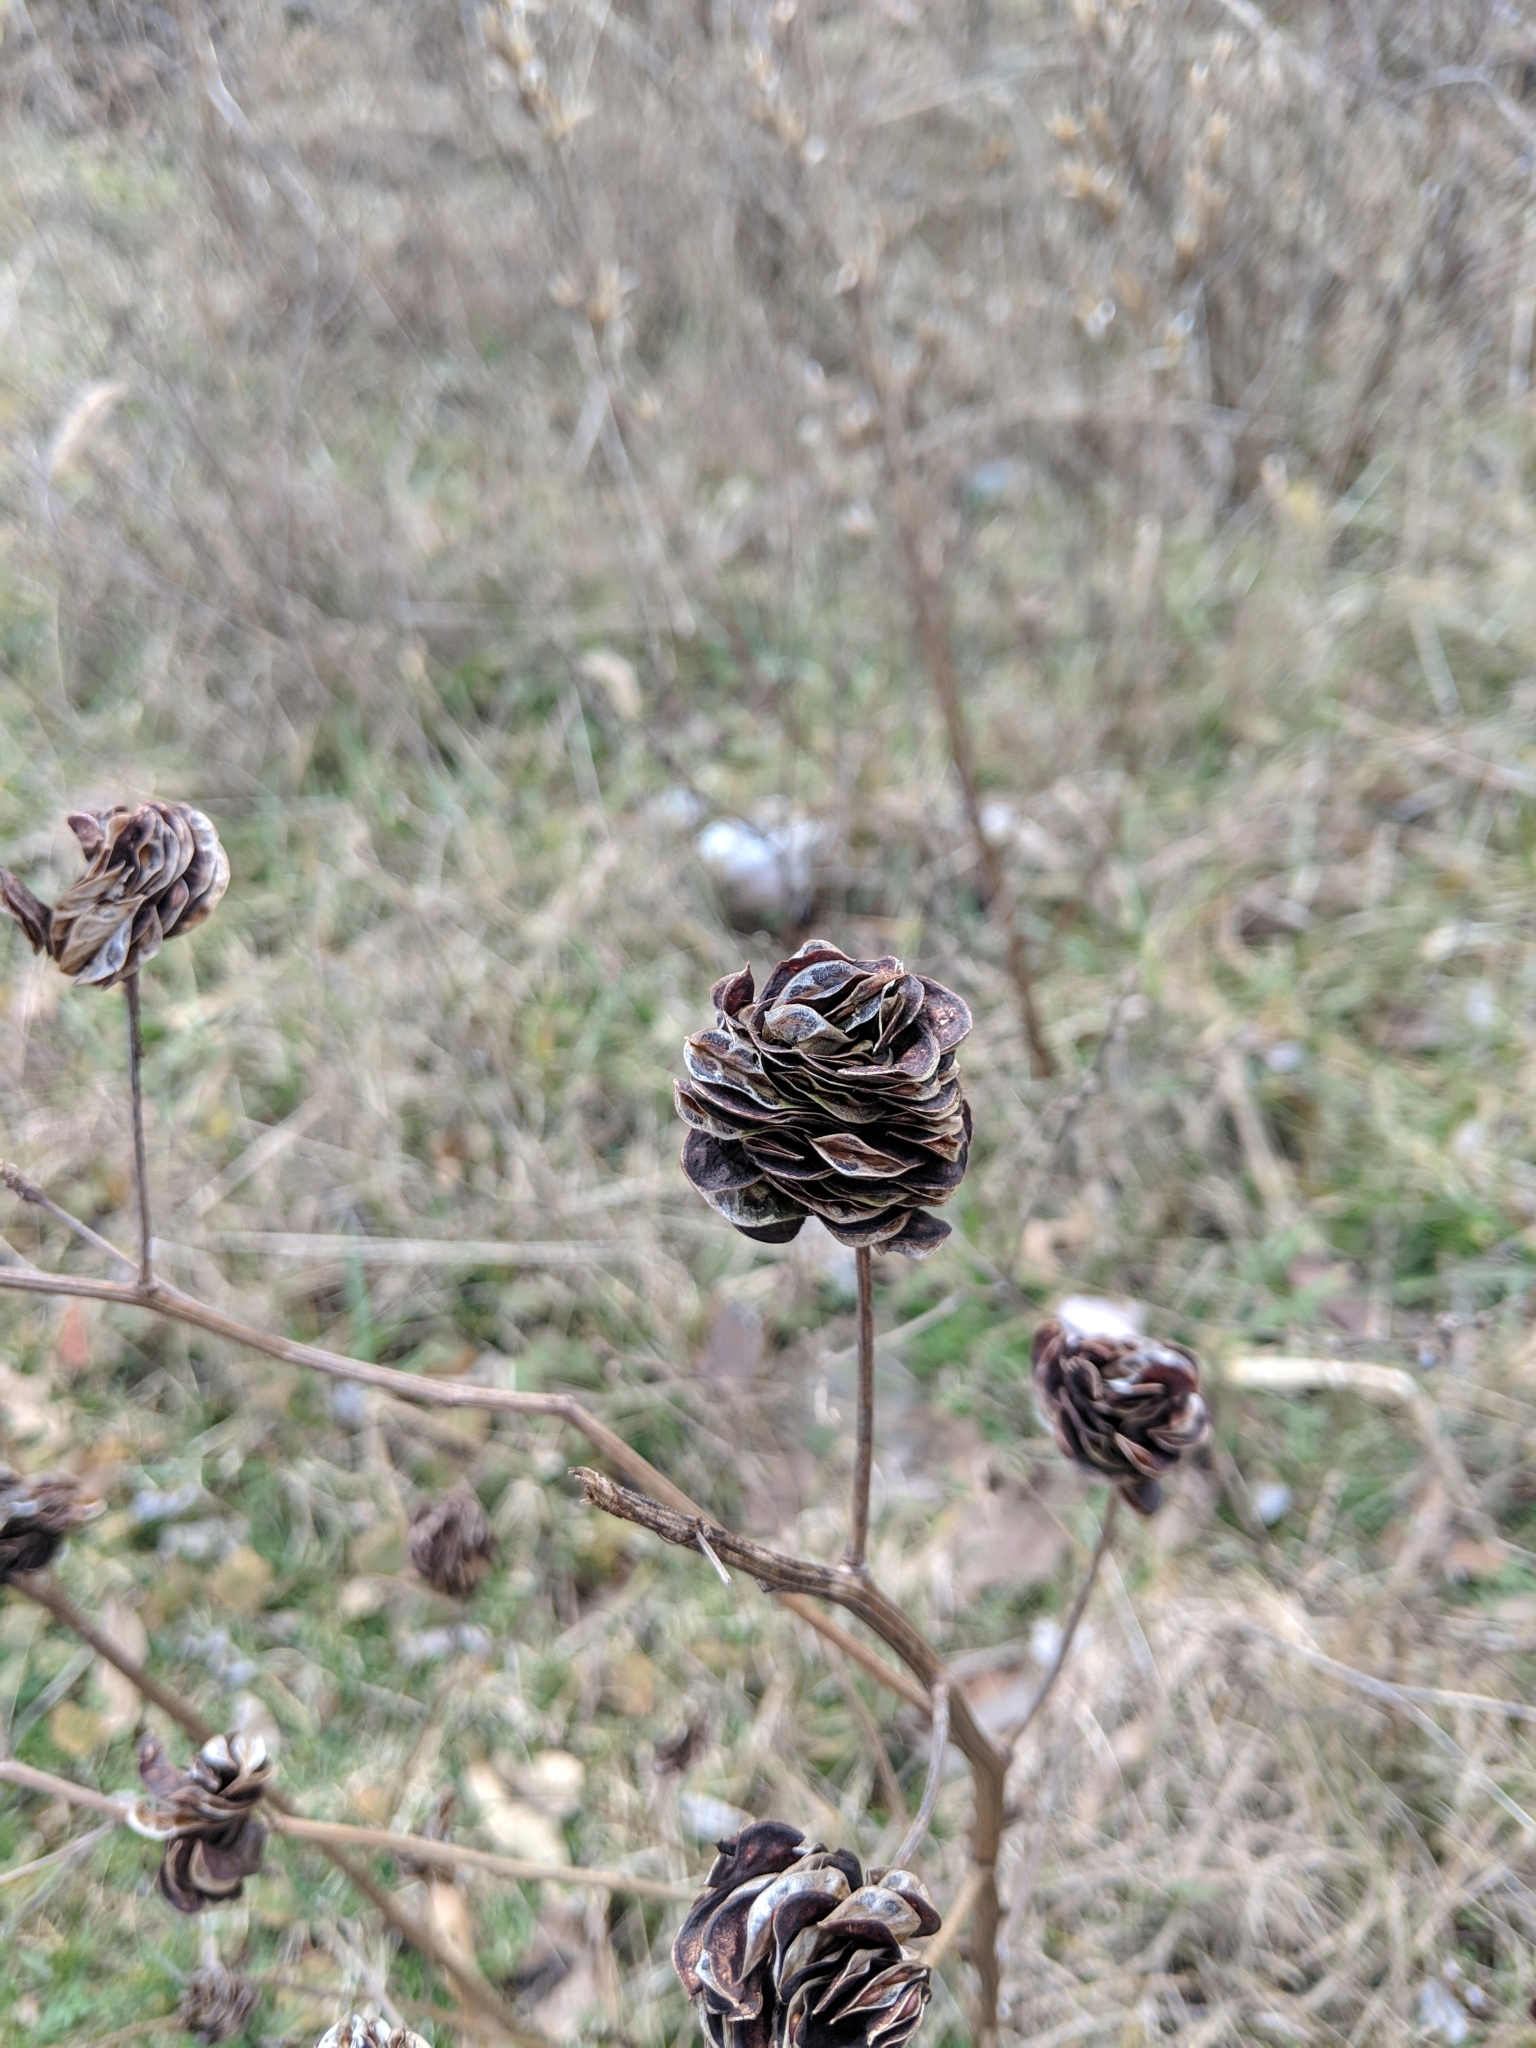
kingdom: Plantae
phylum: Tracheophyta
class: Magnoliopsida
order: Fabales
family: Fabaceae
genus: Desmanthus
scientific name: Desmanthus illinoensis
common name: Illinois bundle-flower
